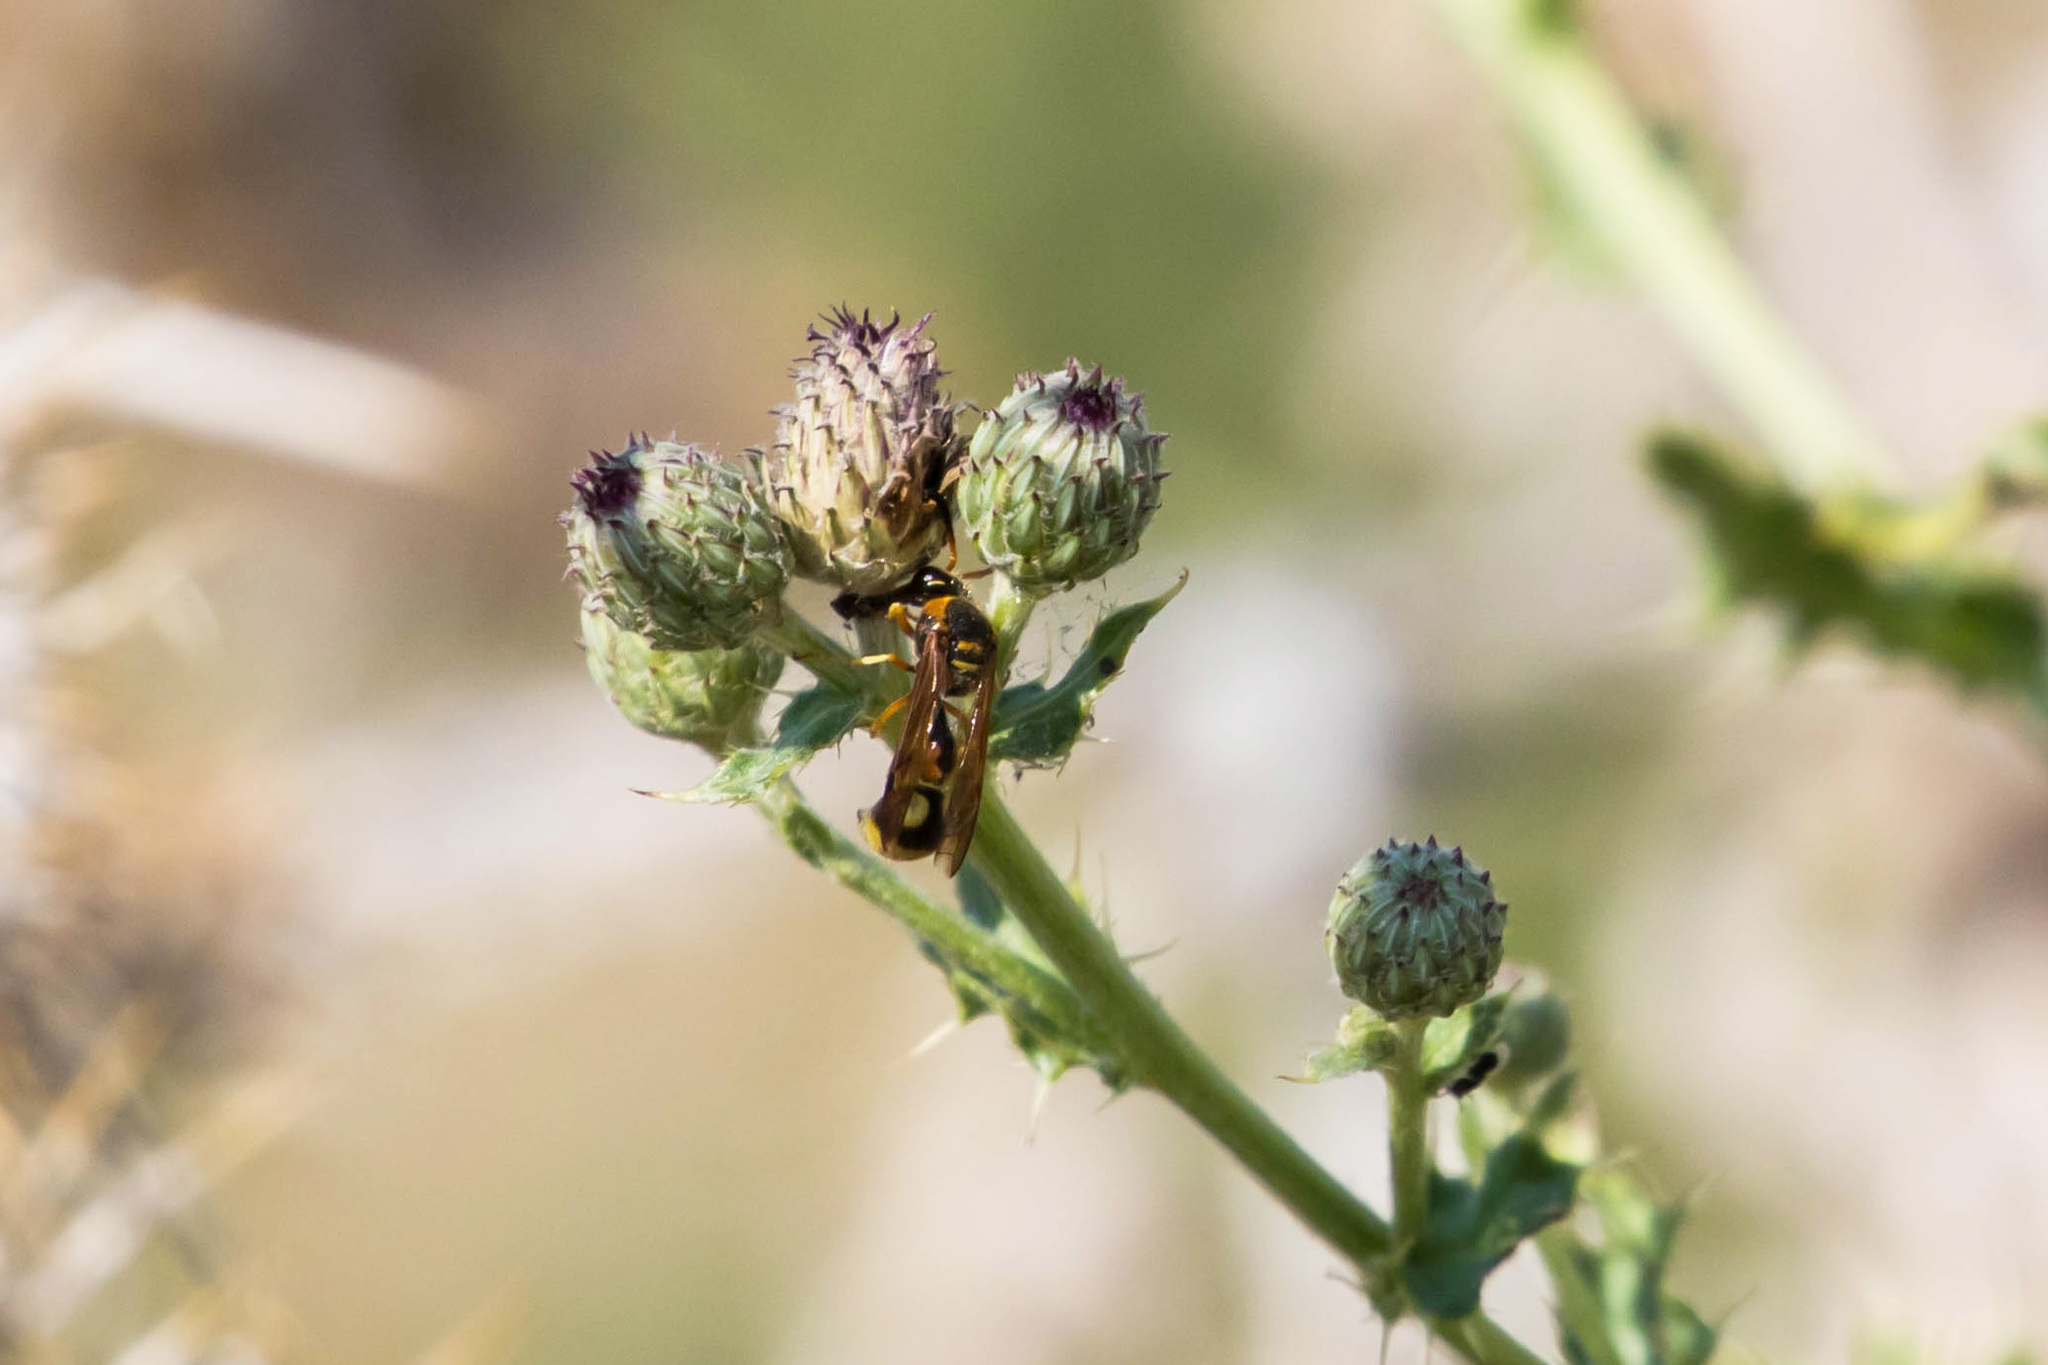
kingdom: Animalia
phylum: Arthropoda
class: Insecta
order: Hymenoptera
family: Vespidae
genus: Eumenes
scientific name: Eumenes bollii
